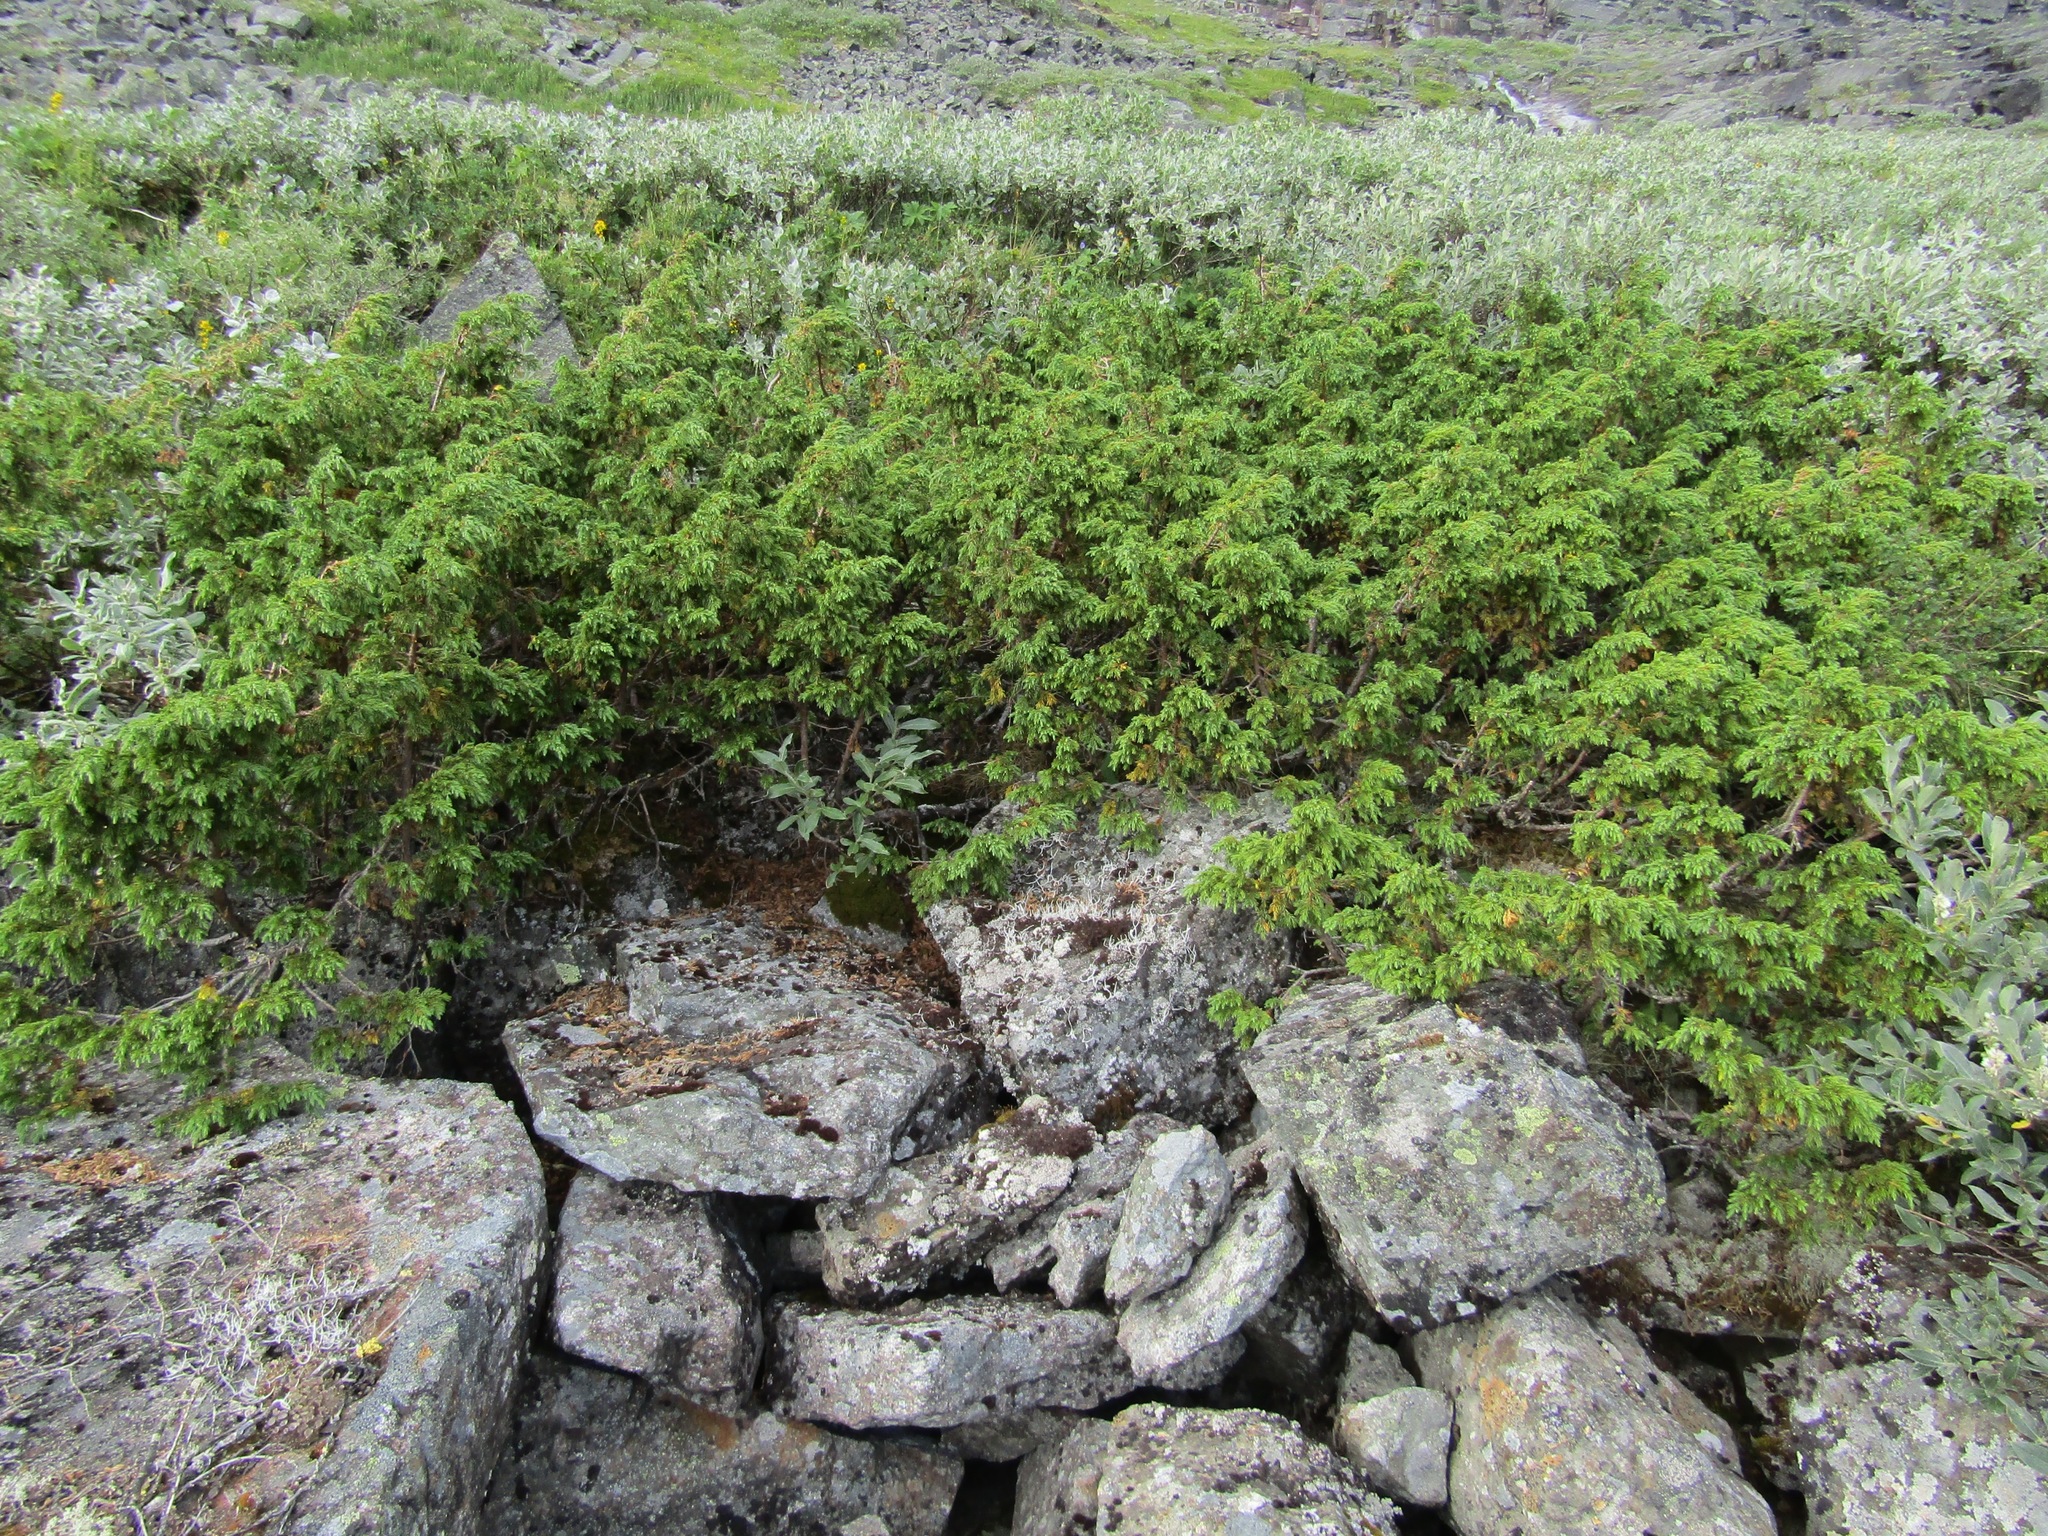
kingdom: Plantae
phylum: Tracheophyta
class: Pinopsida
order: Pinales
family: Cupressaceae
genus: Juniperus
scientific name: Juniperus communis
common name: Common juniper
